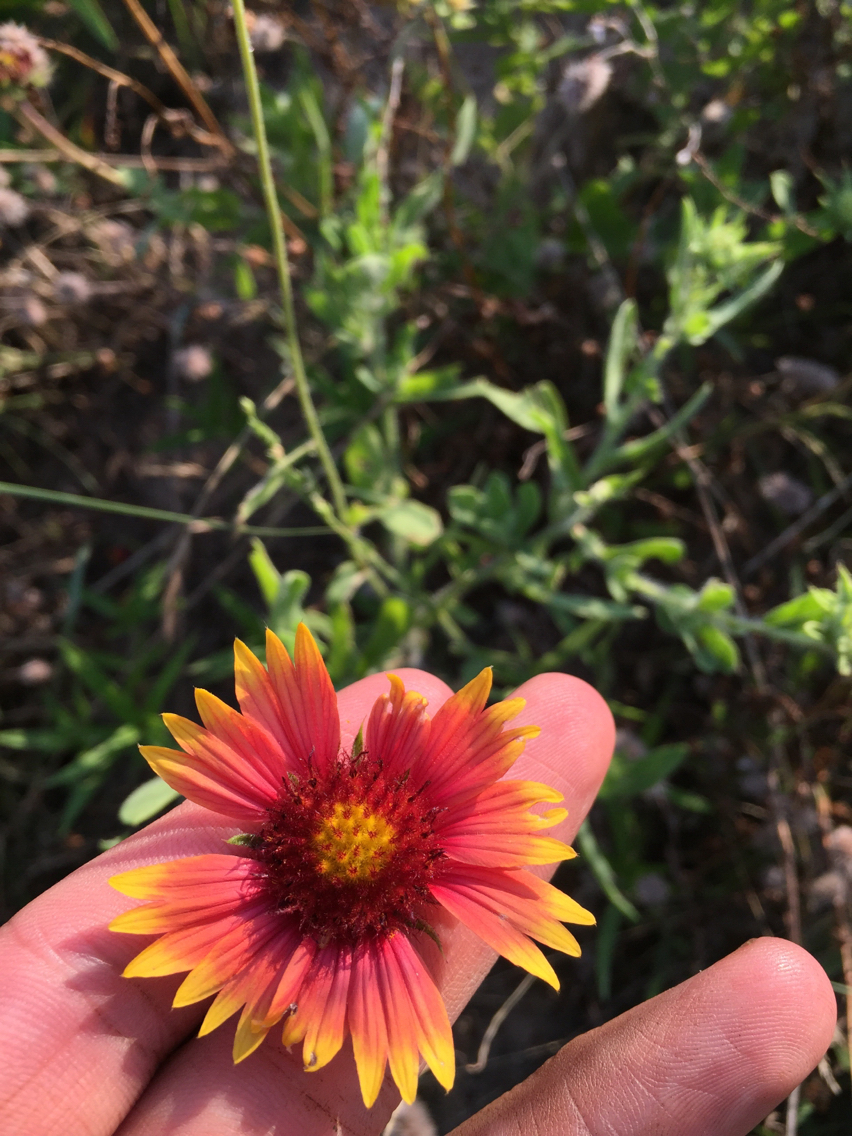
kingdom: Plantae
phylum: Tracheophyta
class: Magnoliopsida
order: Asterales
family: Asteraceae
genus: Gaillardia
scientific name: Gaillardia pulchella
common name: Firewheel
